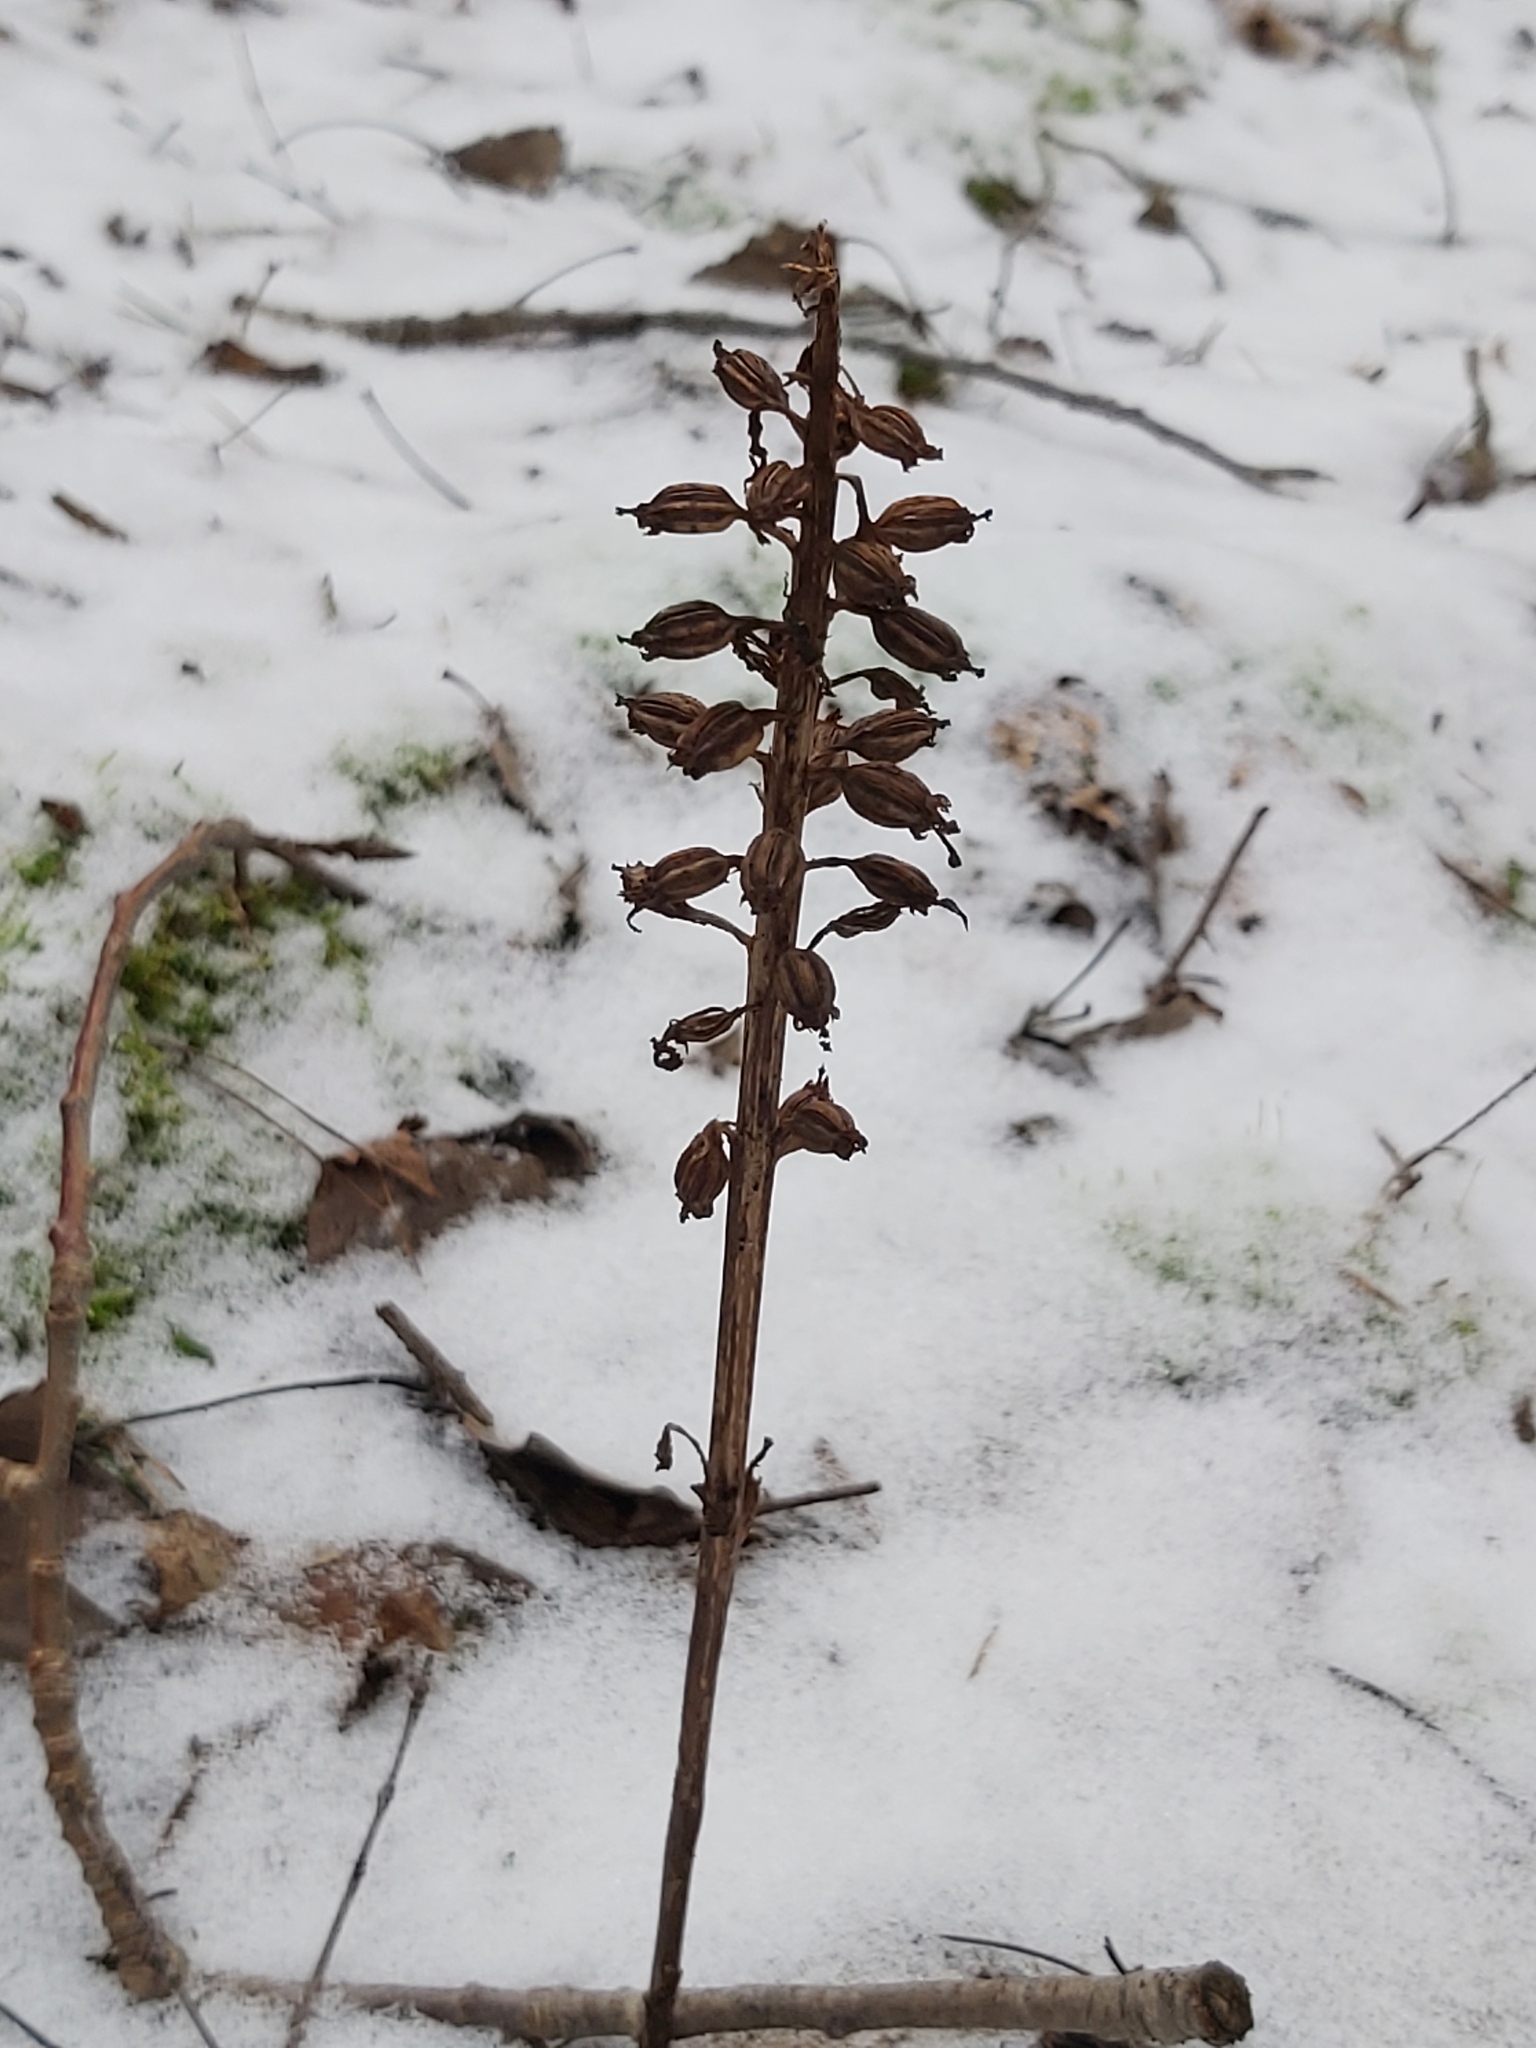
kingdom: Plantae
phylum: Tracheophyta
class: Liliopsida
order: Asparagales
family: Orchidaceae
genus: Neottia
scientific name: Neottia nidus-avis
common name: Bird's-nest orchid
